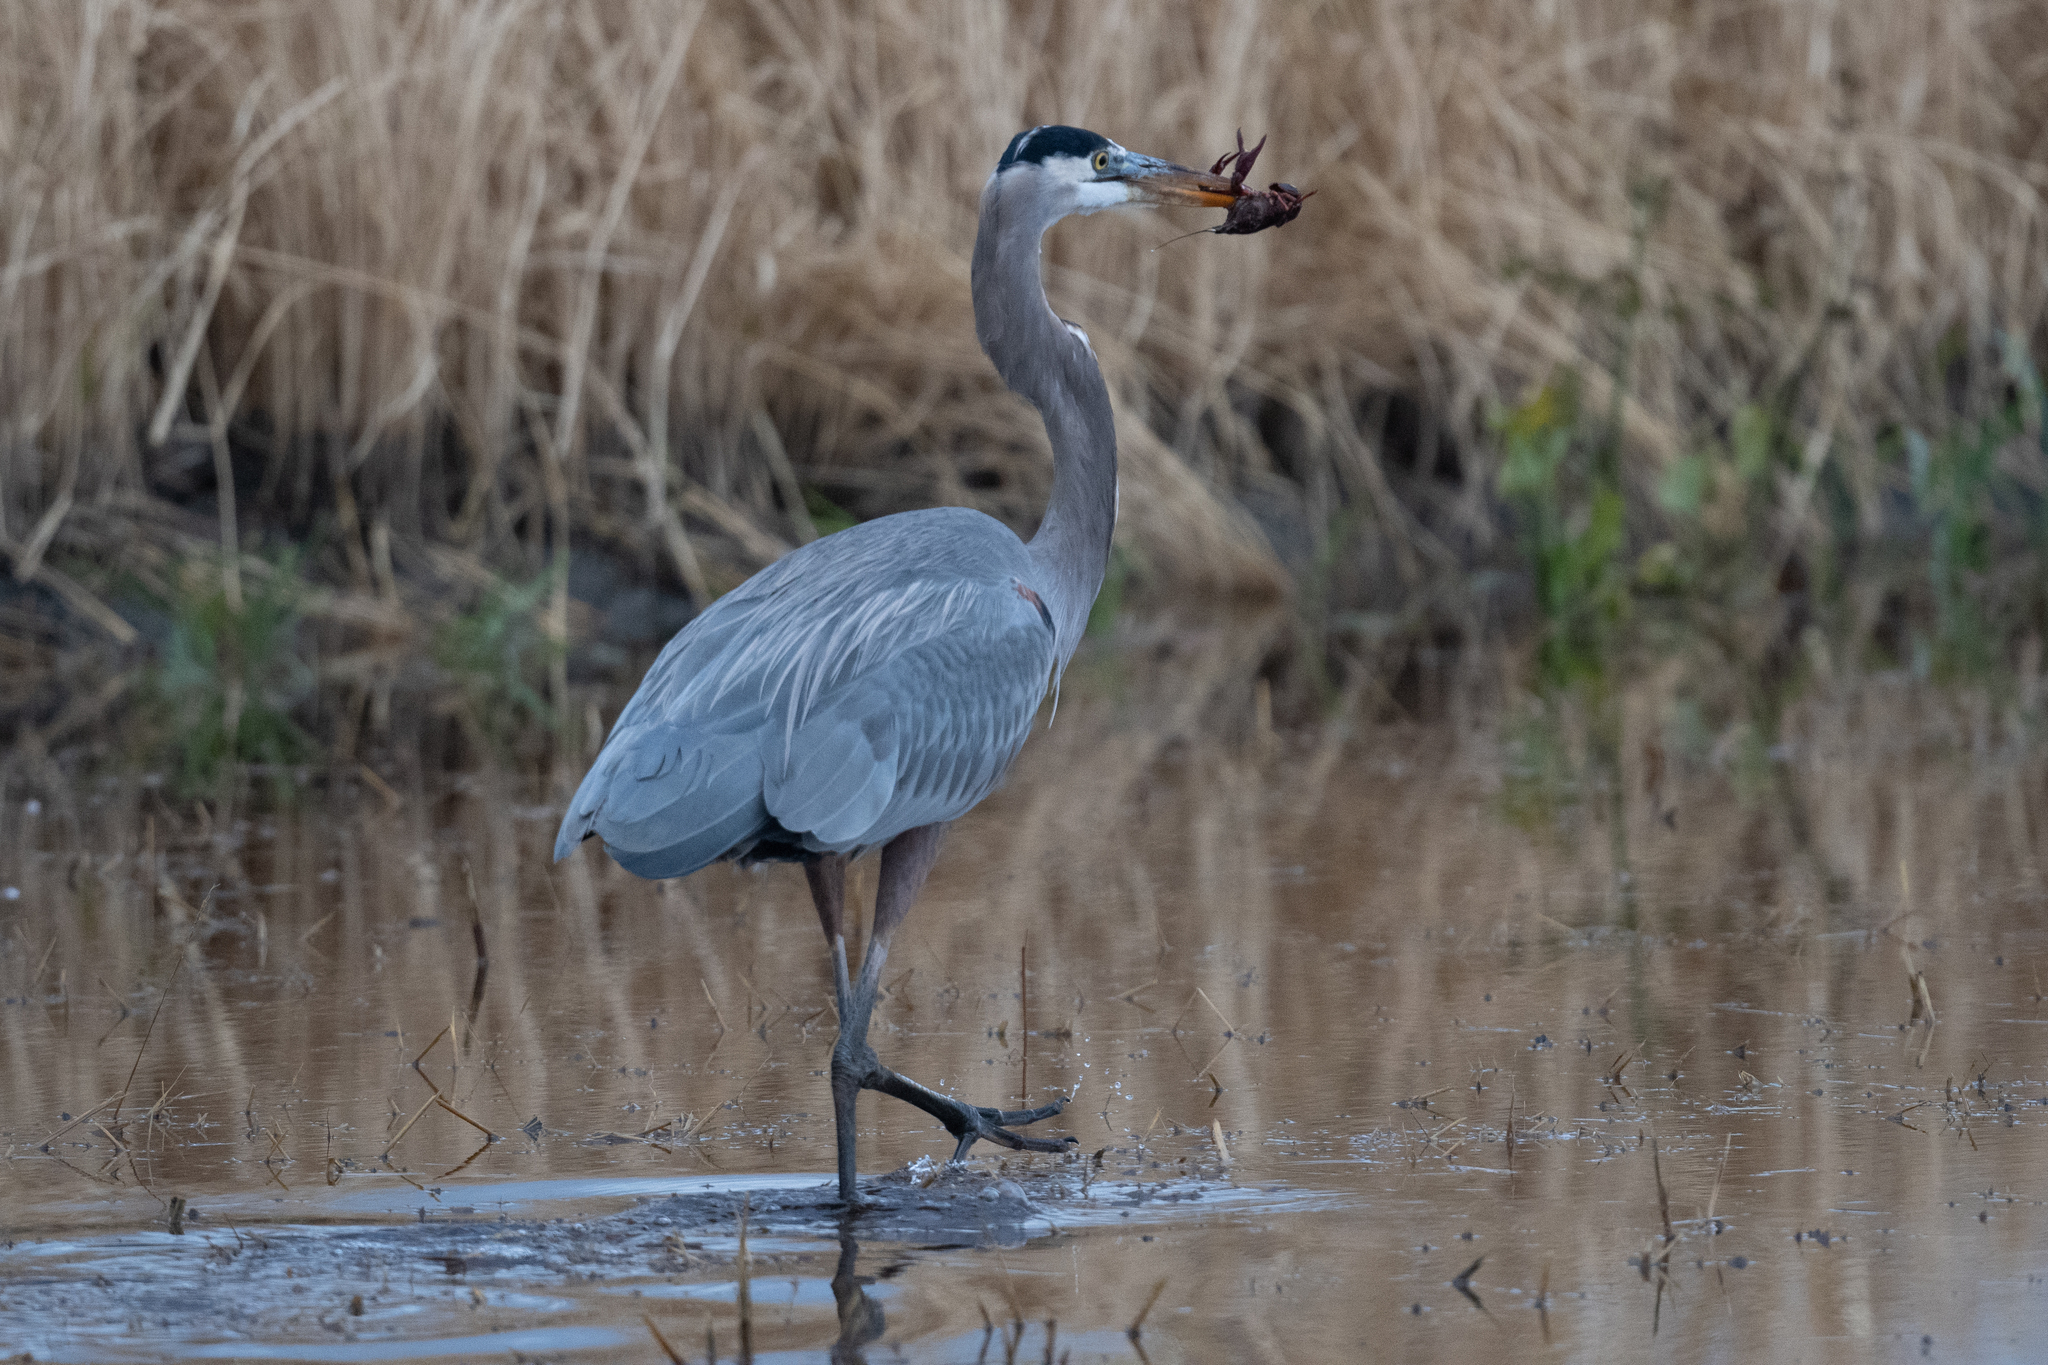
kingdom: Animalia
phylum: Chordata
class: Aves
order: Pelecaniformes
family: Ardeidae
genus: Ardea
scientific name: Ardea herodias
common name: Great blue heron
